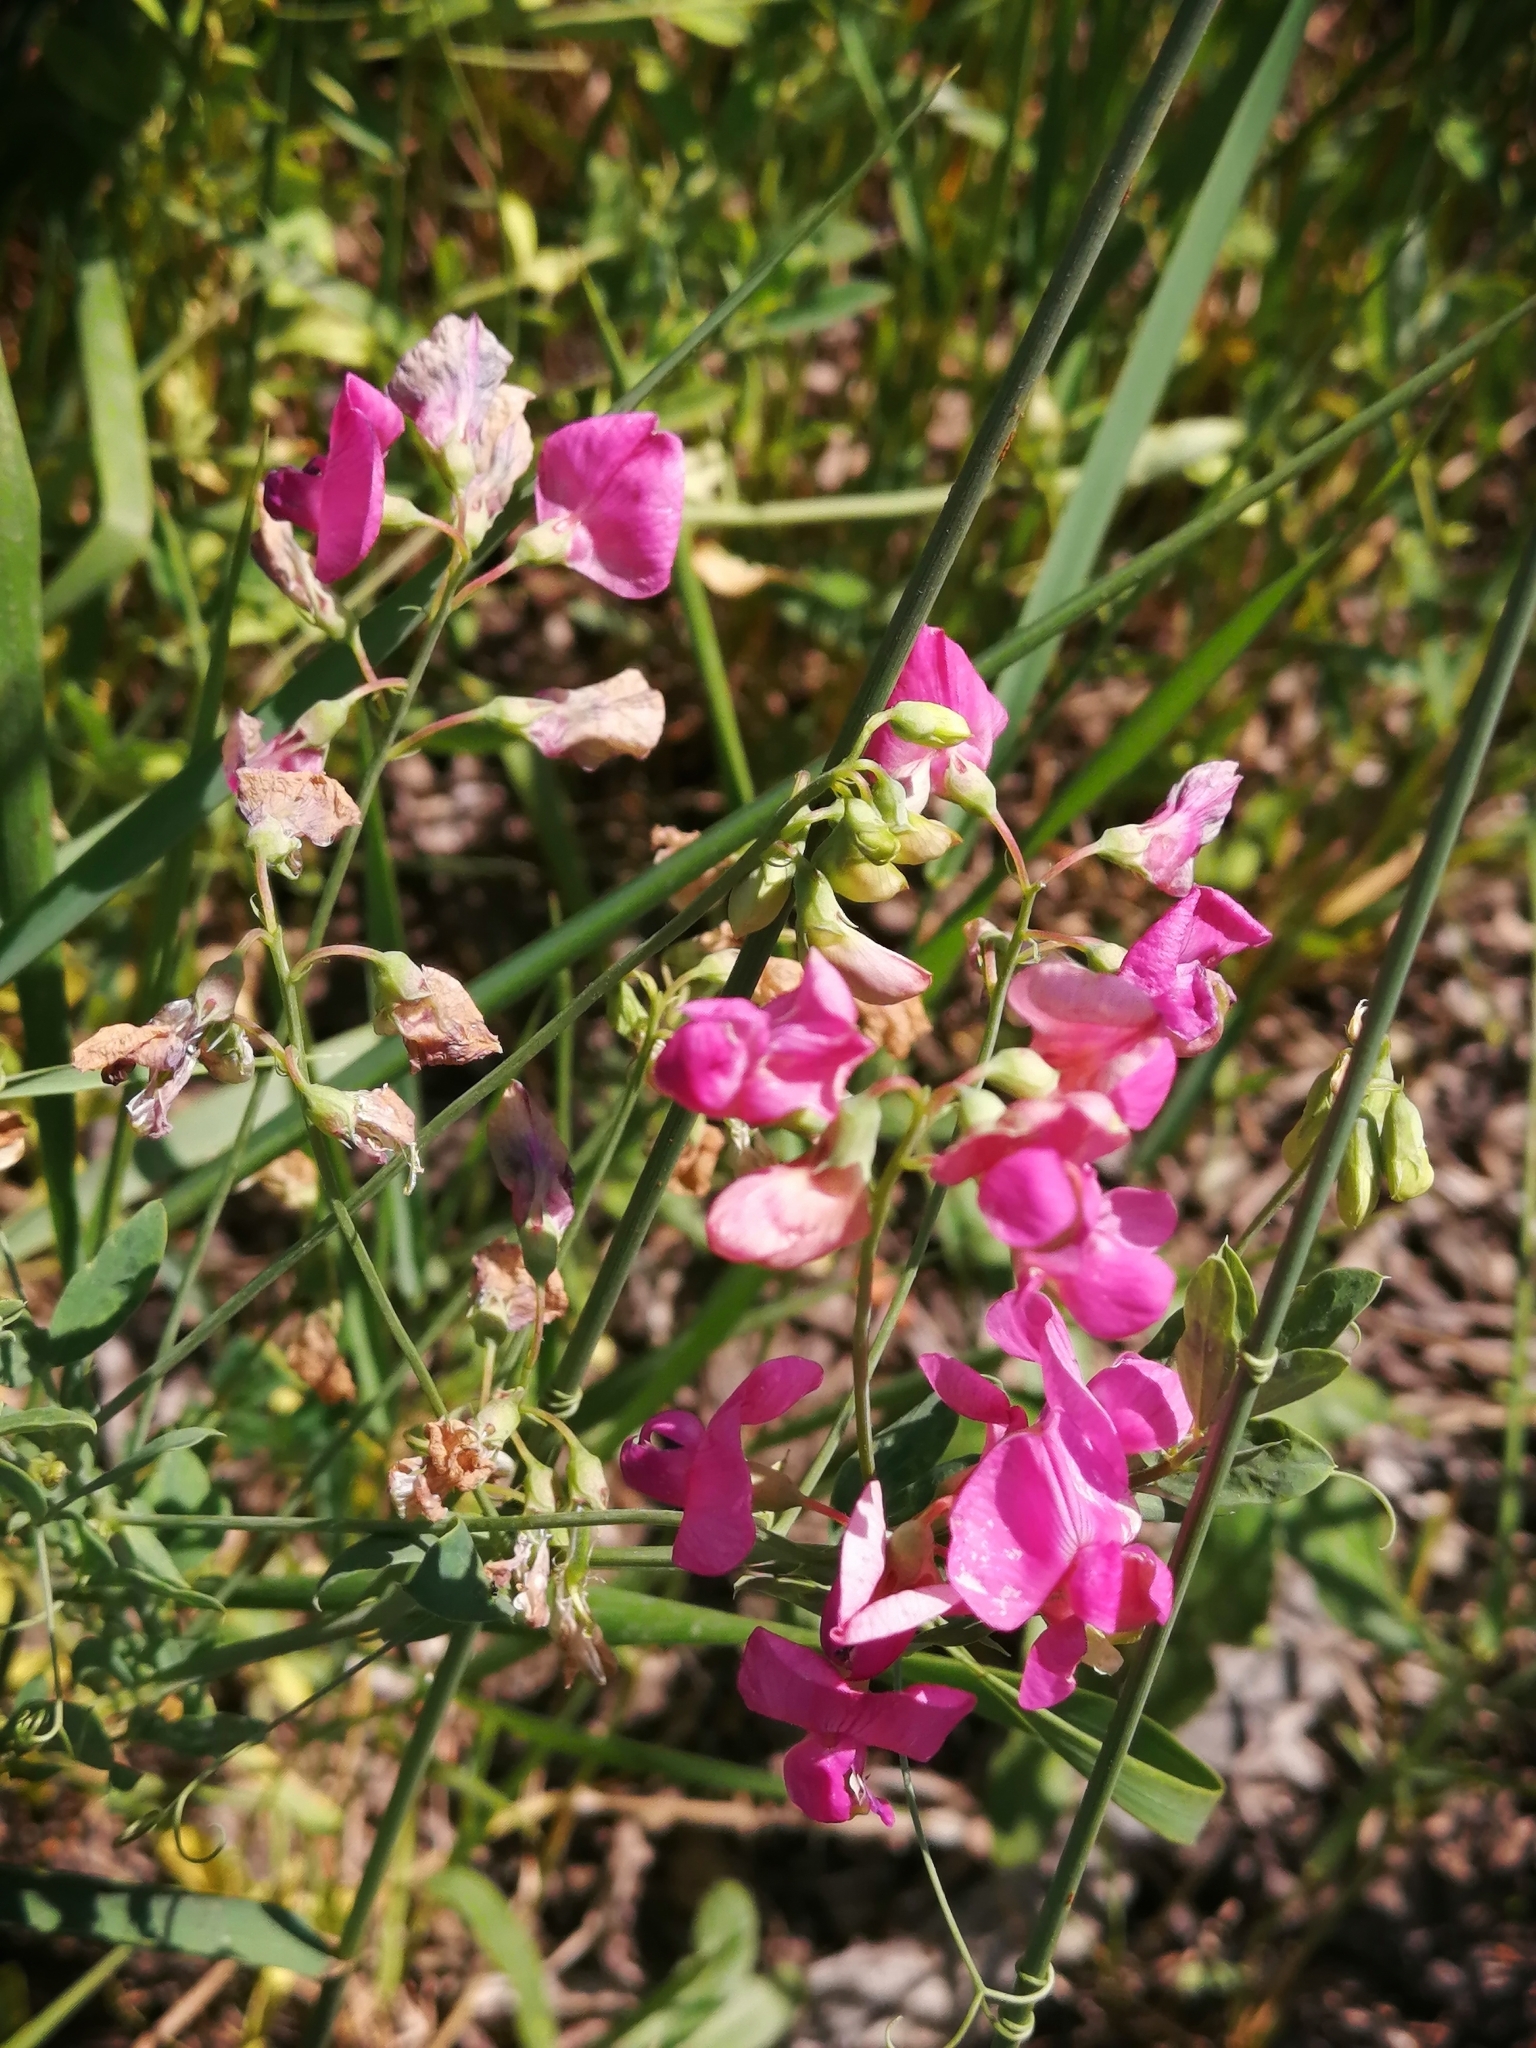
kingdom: Plantae
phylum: Tracheophyta
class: Magnoliopsida
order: Fabales
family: Fabaceae
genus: Lathyrus
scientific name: Lathyrus tuberosus
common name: Tuberous pea
